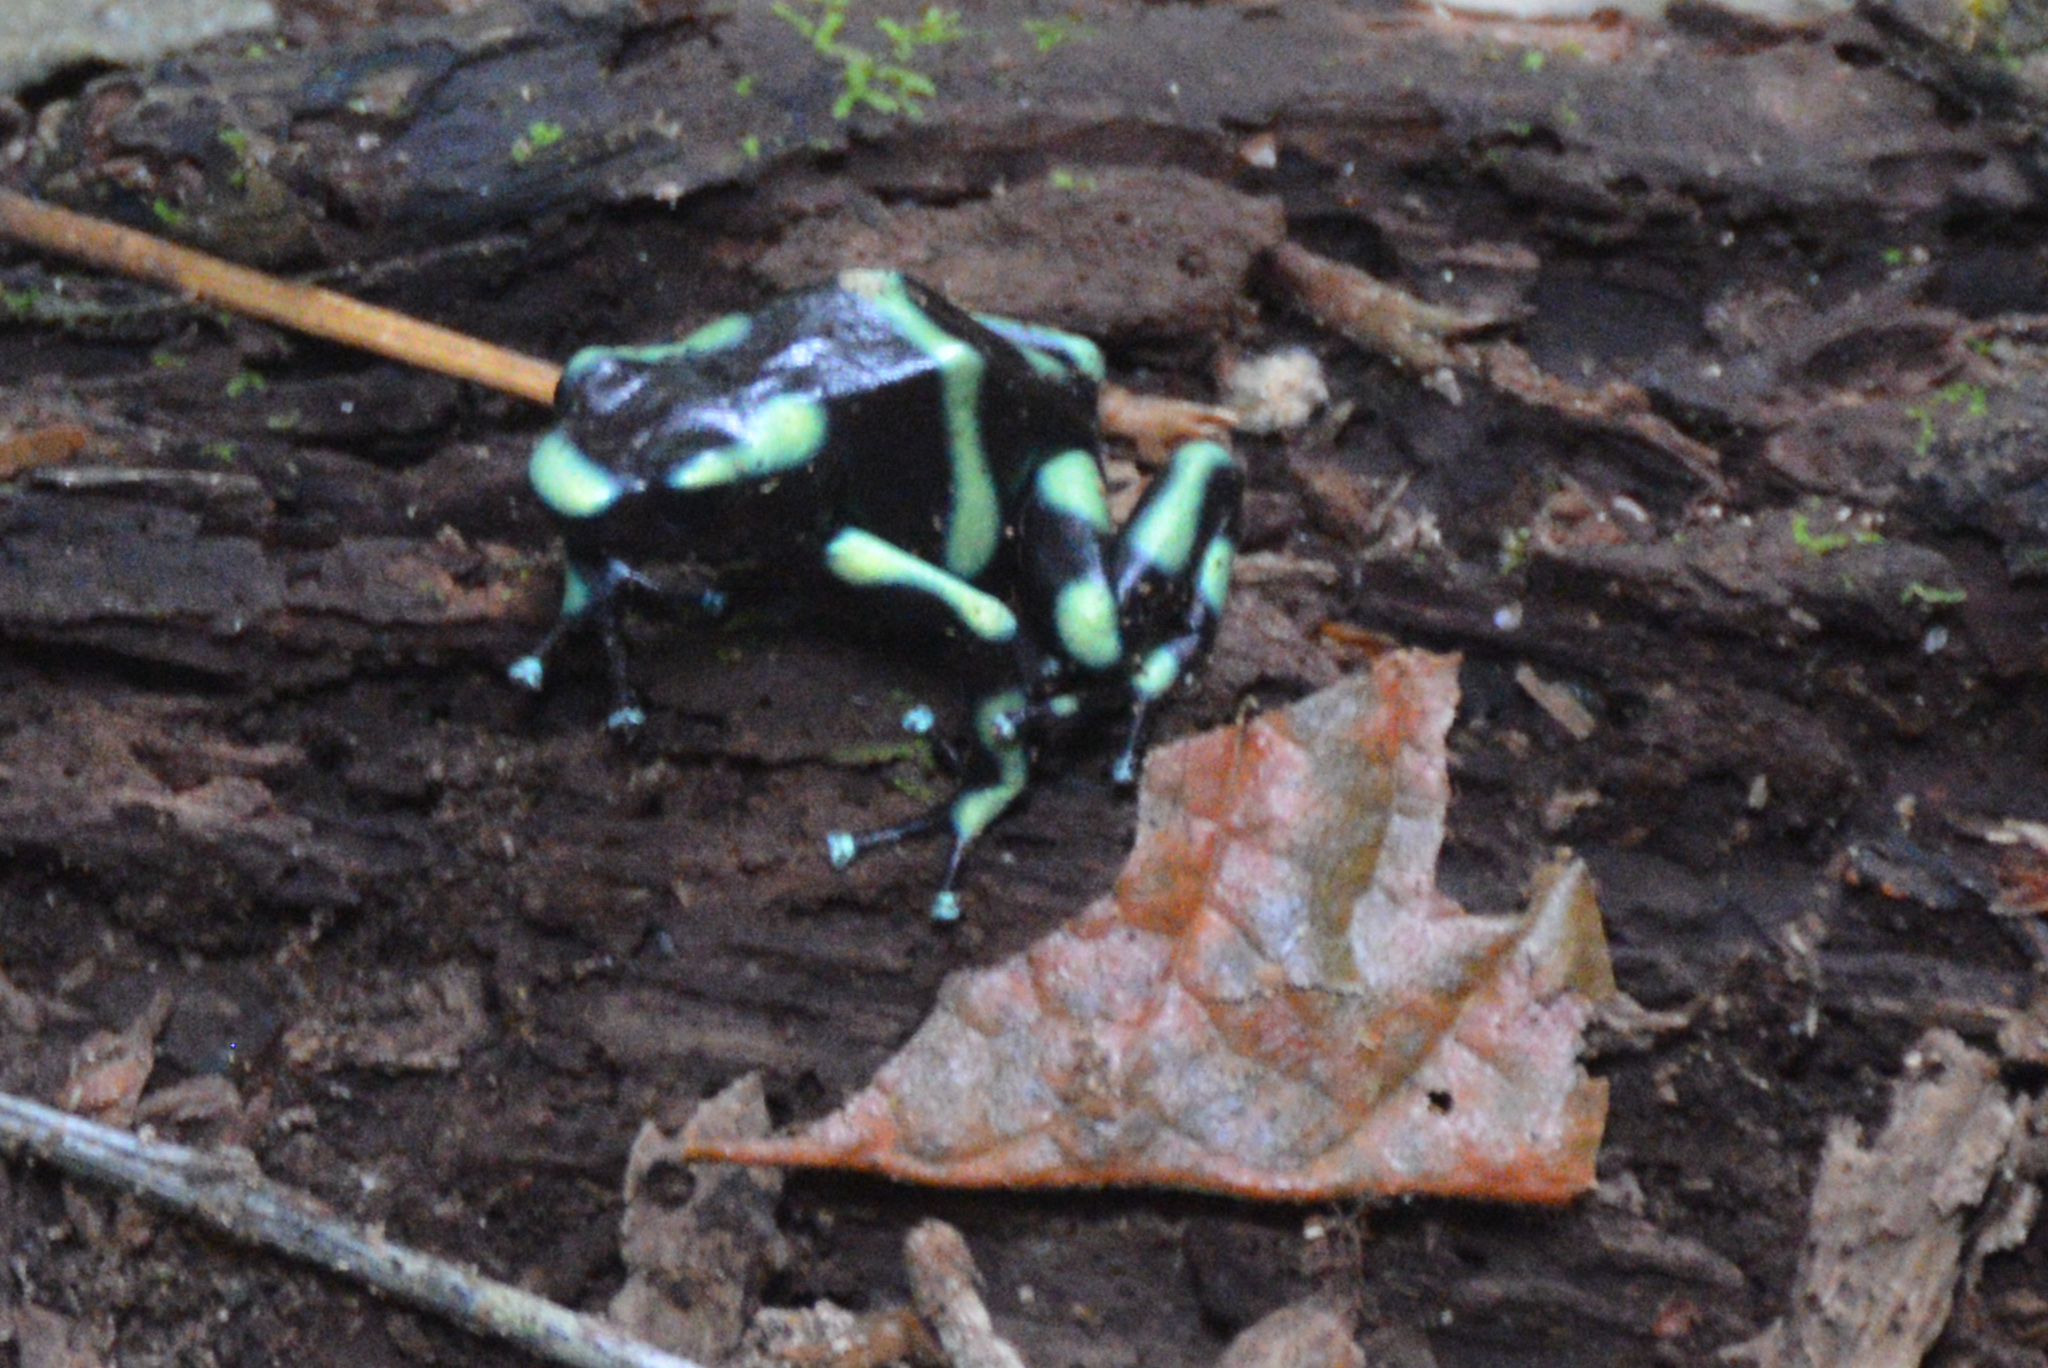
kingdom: Animalia
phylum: Chordata
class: Amphibia
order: Anura
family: Dendrobatidae
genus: Dendrobates
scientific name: Dendrobates auratus
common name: Green and black poison dart frog
